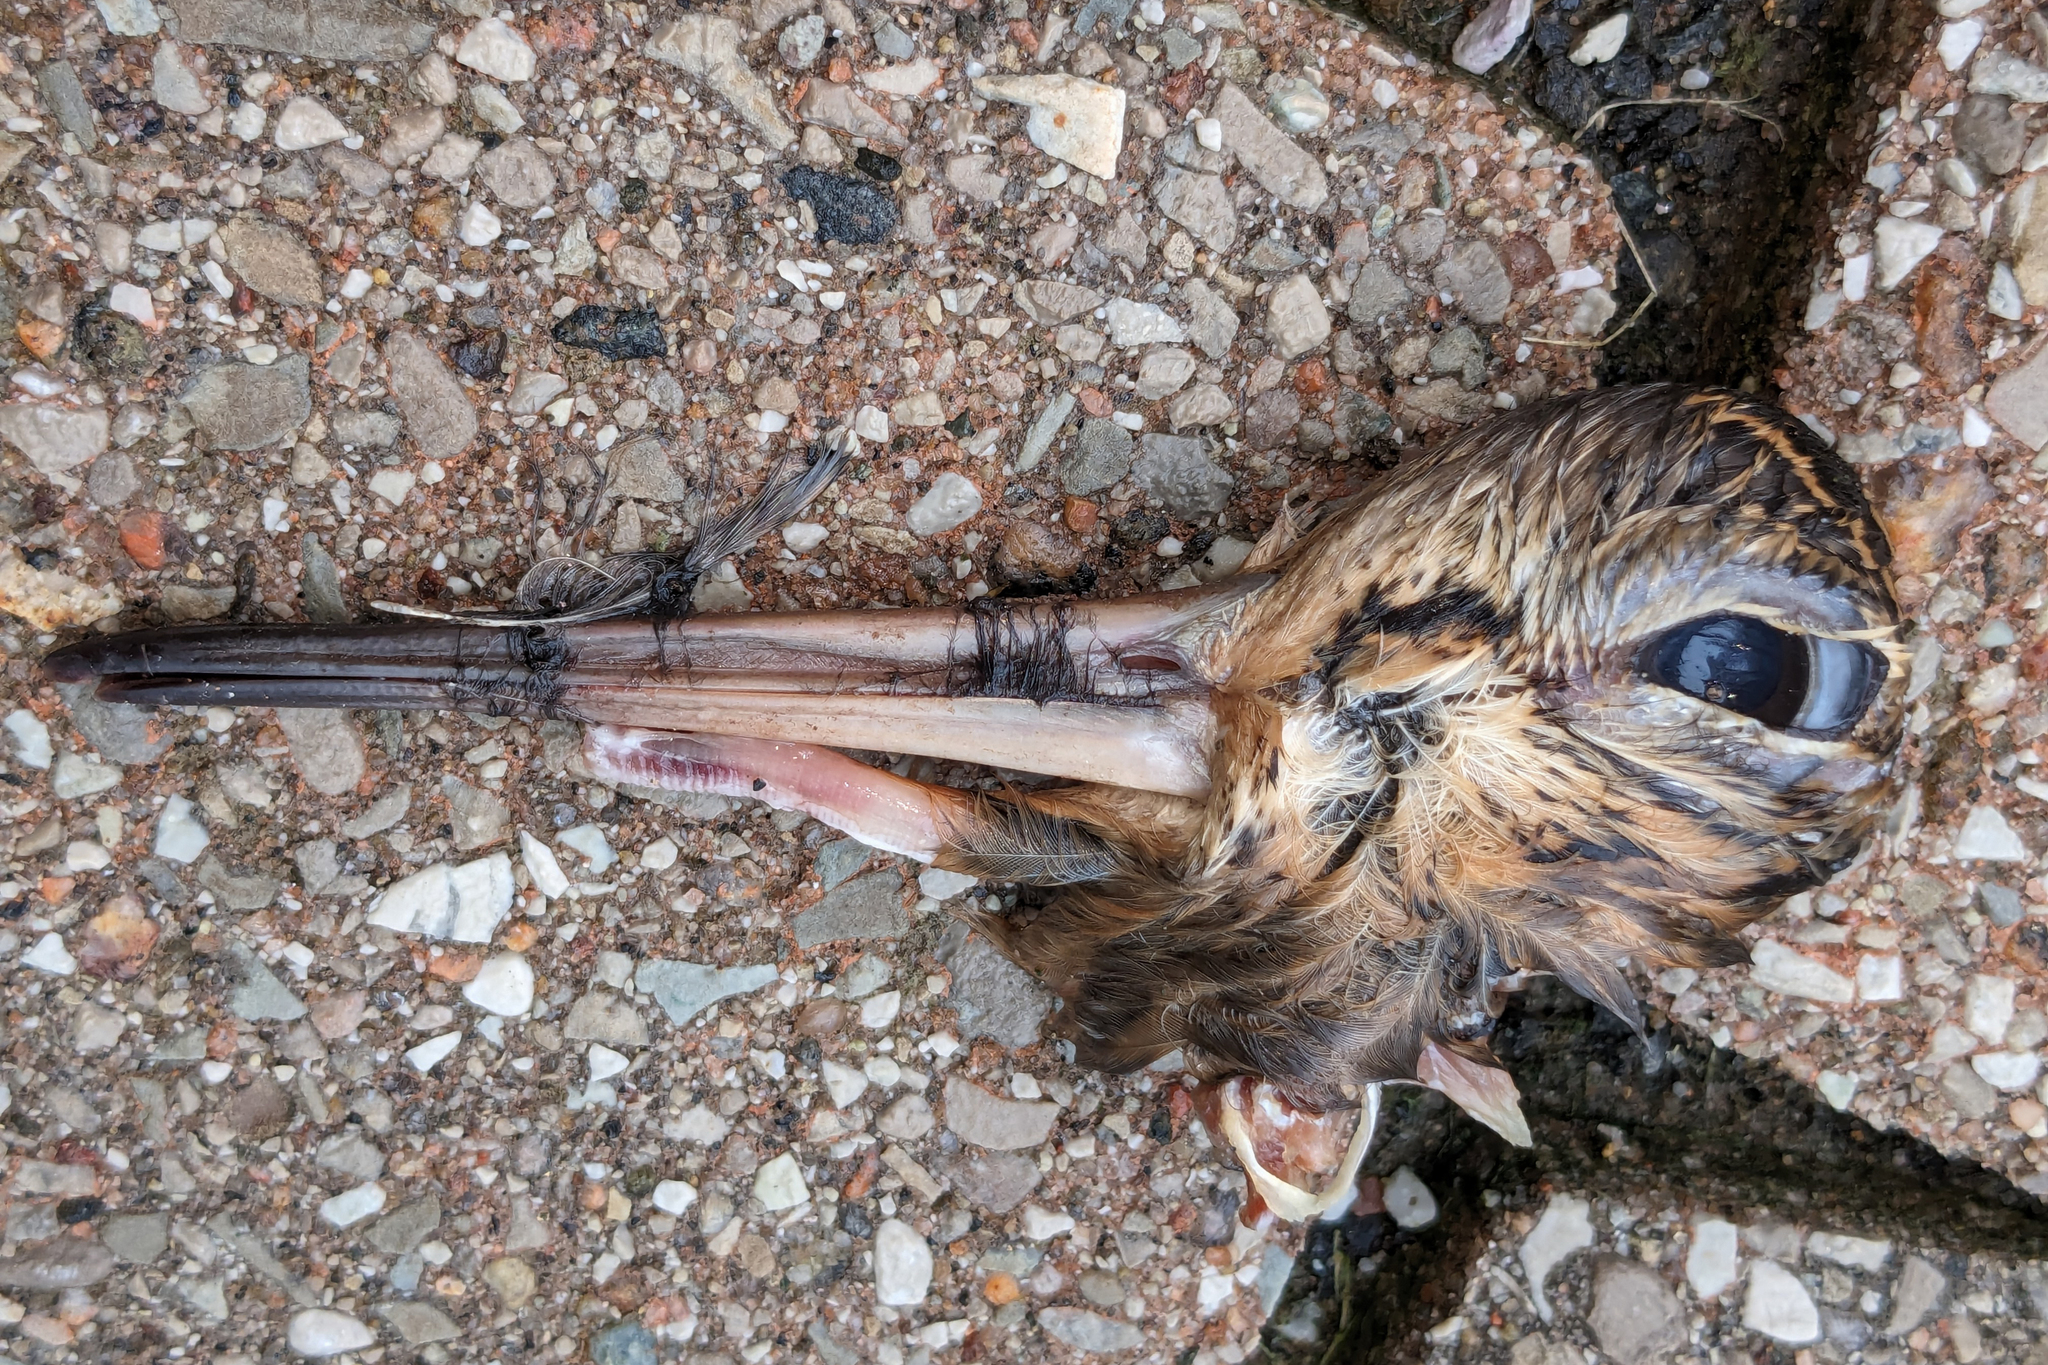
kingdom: Animalia
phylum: Chordata
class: Aves
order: Charadriiformes
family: Scolopacidae
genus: Scolopax
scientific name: Scolopax minor
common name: American woodcock
